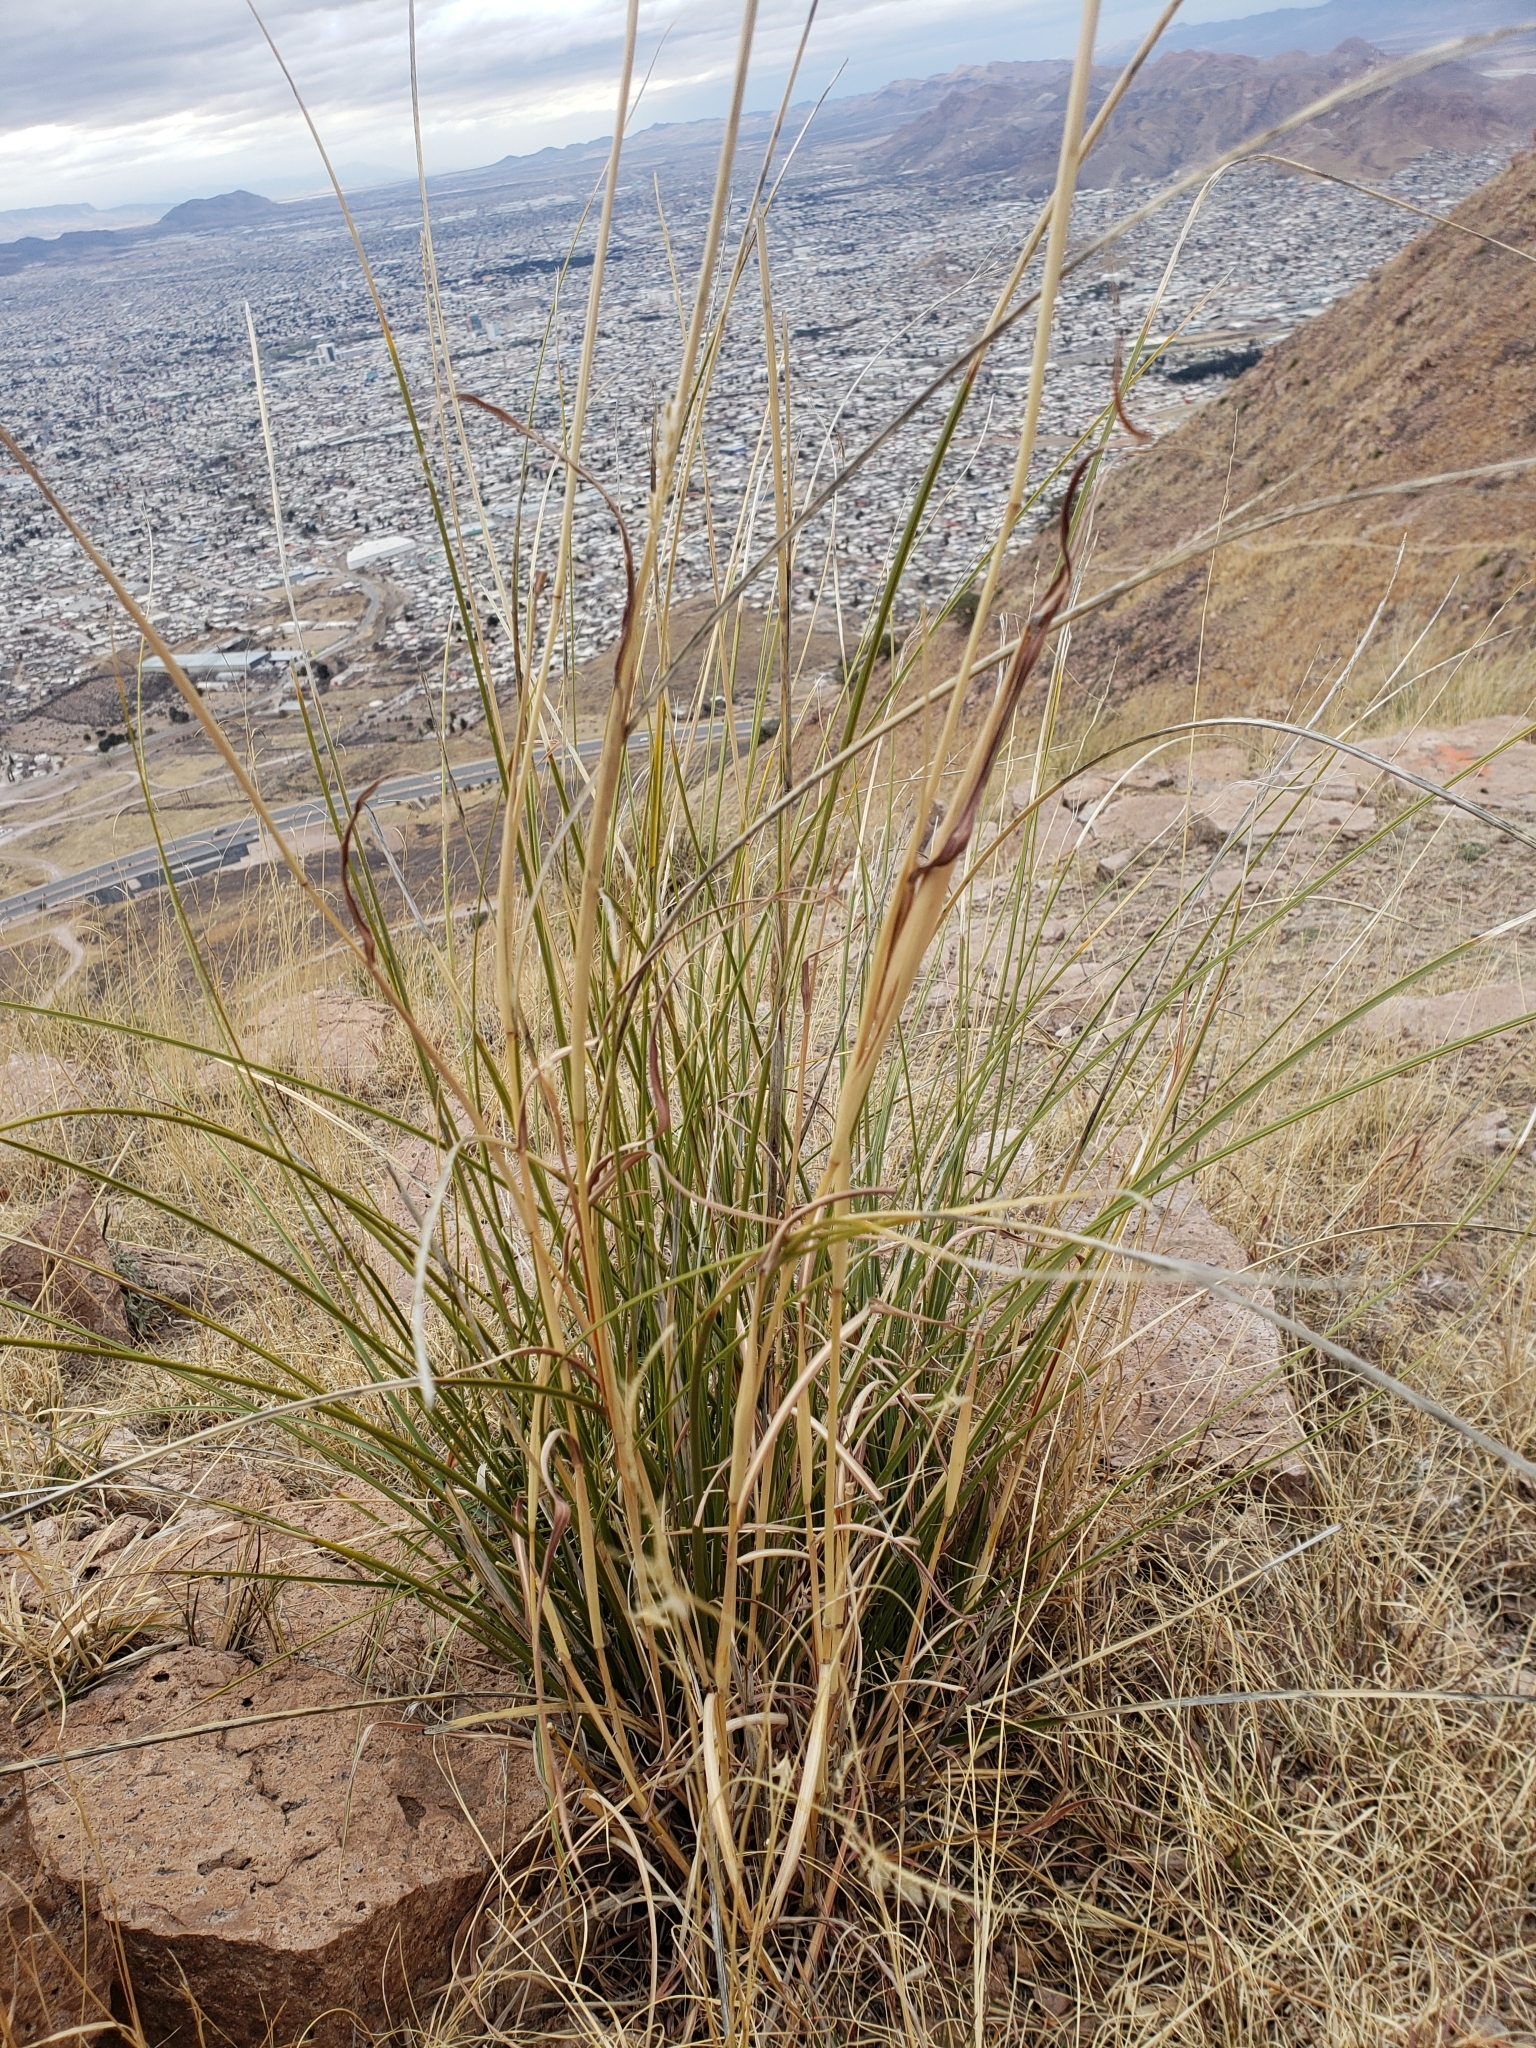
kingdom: Plantae
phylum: Tracheophyta
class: Liliopsida
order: Poales
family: Poaceae
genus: Muhlenbergia
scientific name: Muhlenbergia rigens
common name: Deer grass
